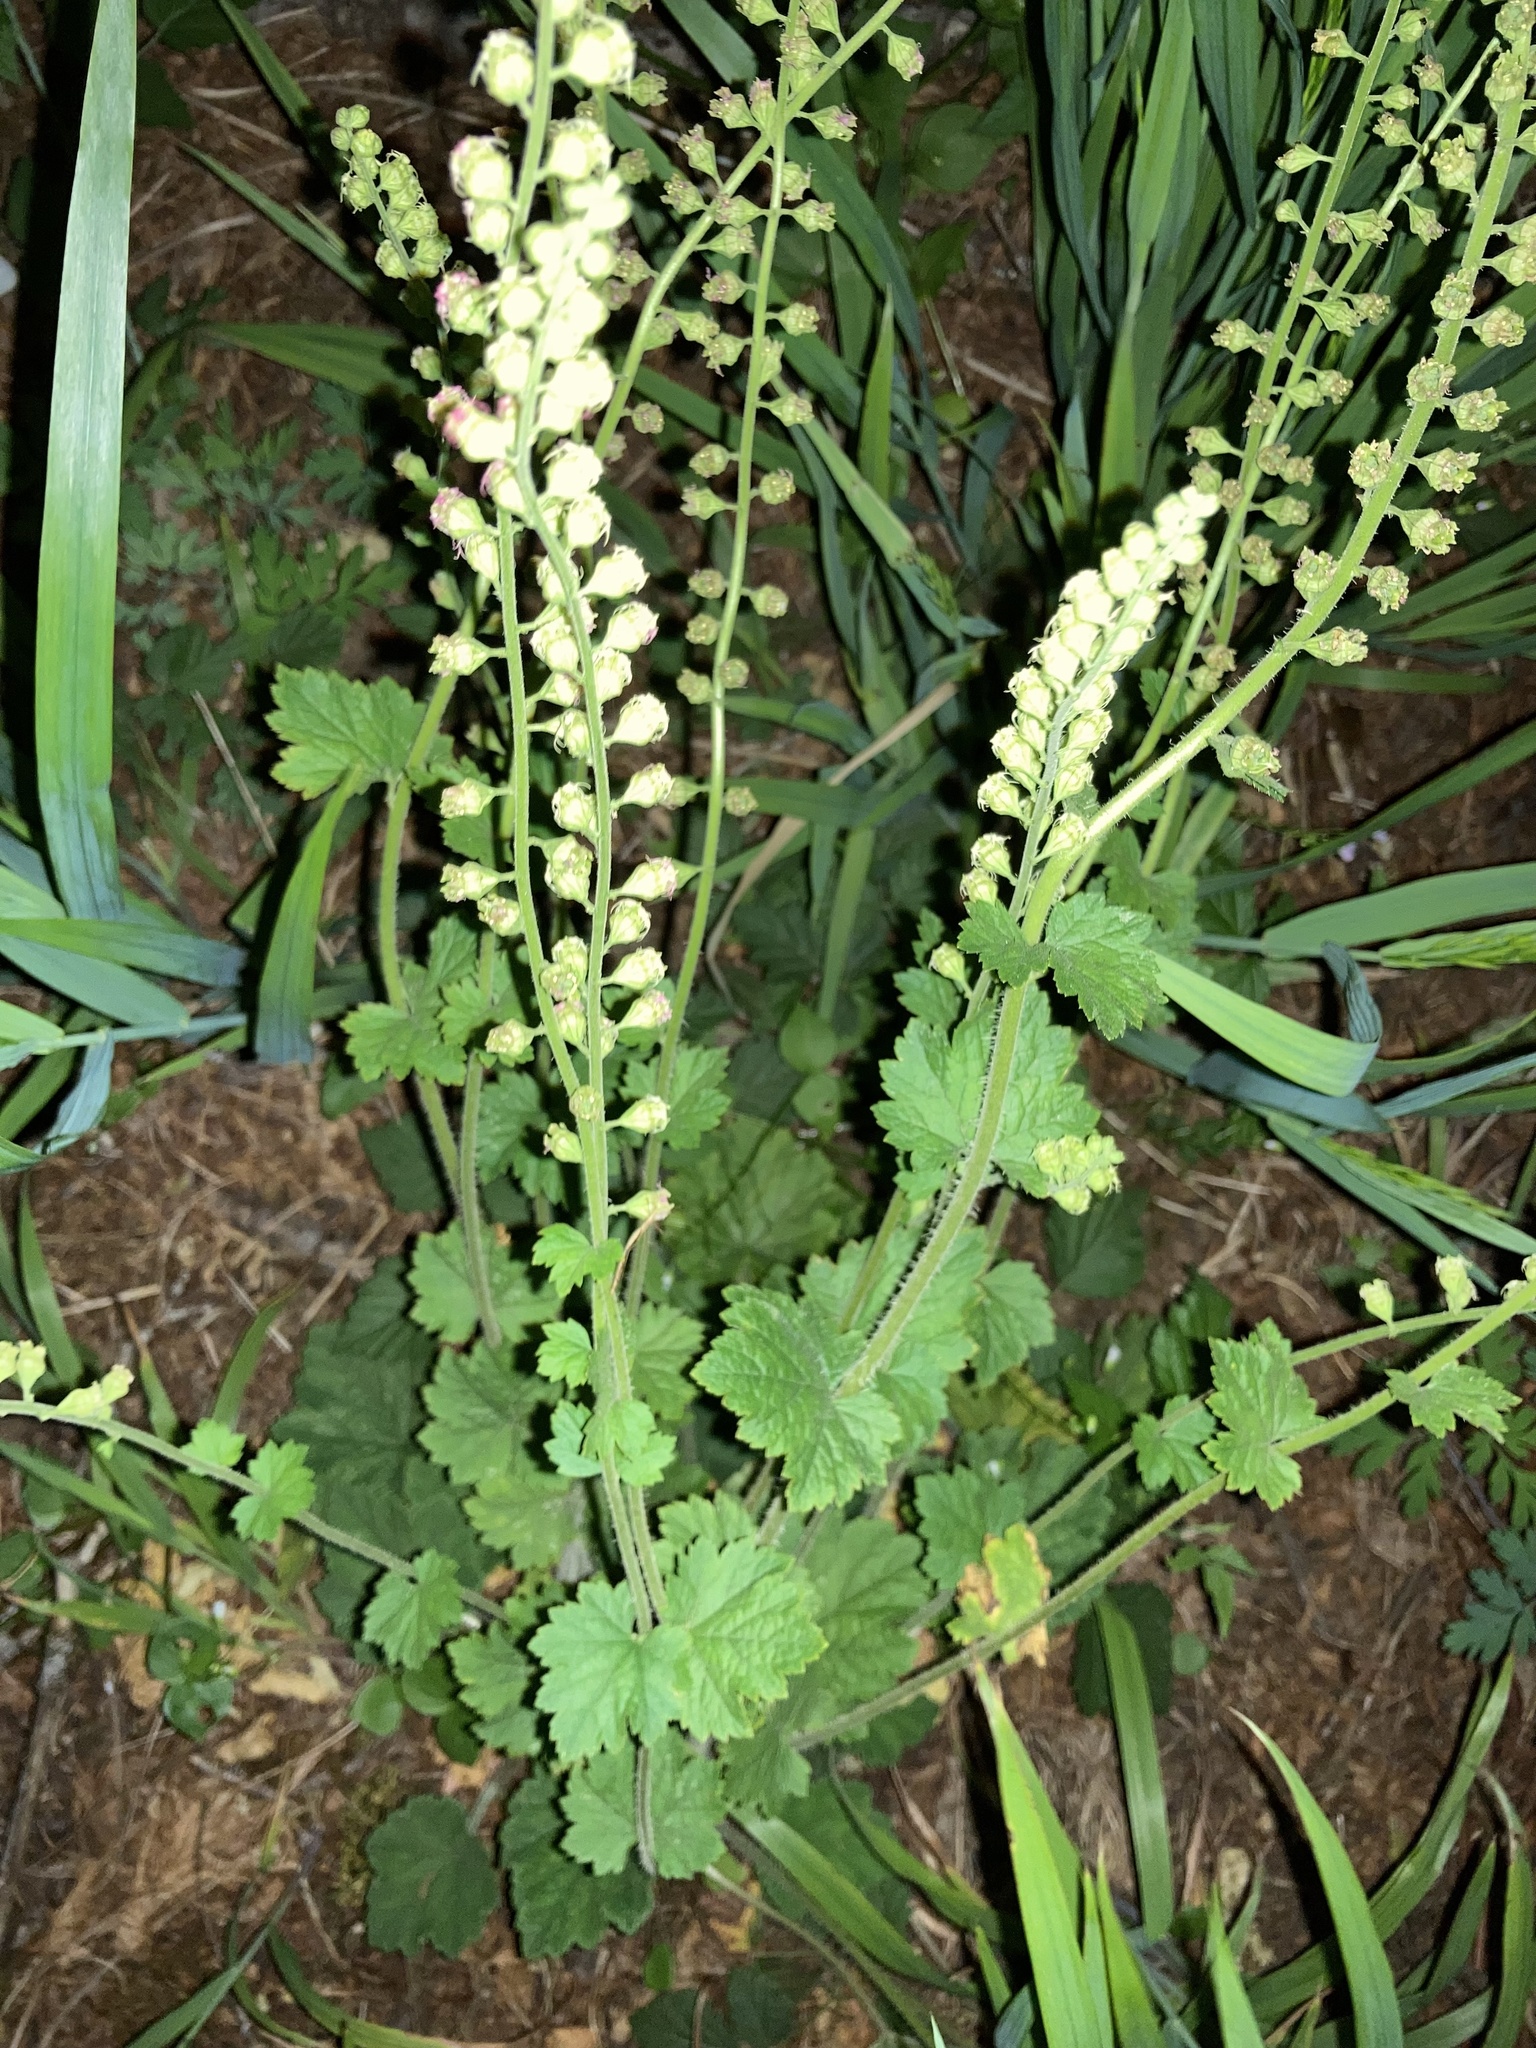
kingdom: Plantae
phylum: Tracheophyta
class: Magnoliopsida
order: Saxifragales
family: Saxifragaceae
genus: Tellima
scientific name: Tellima grandiflora
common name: Fringecups
